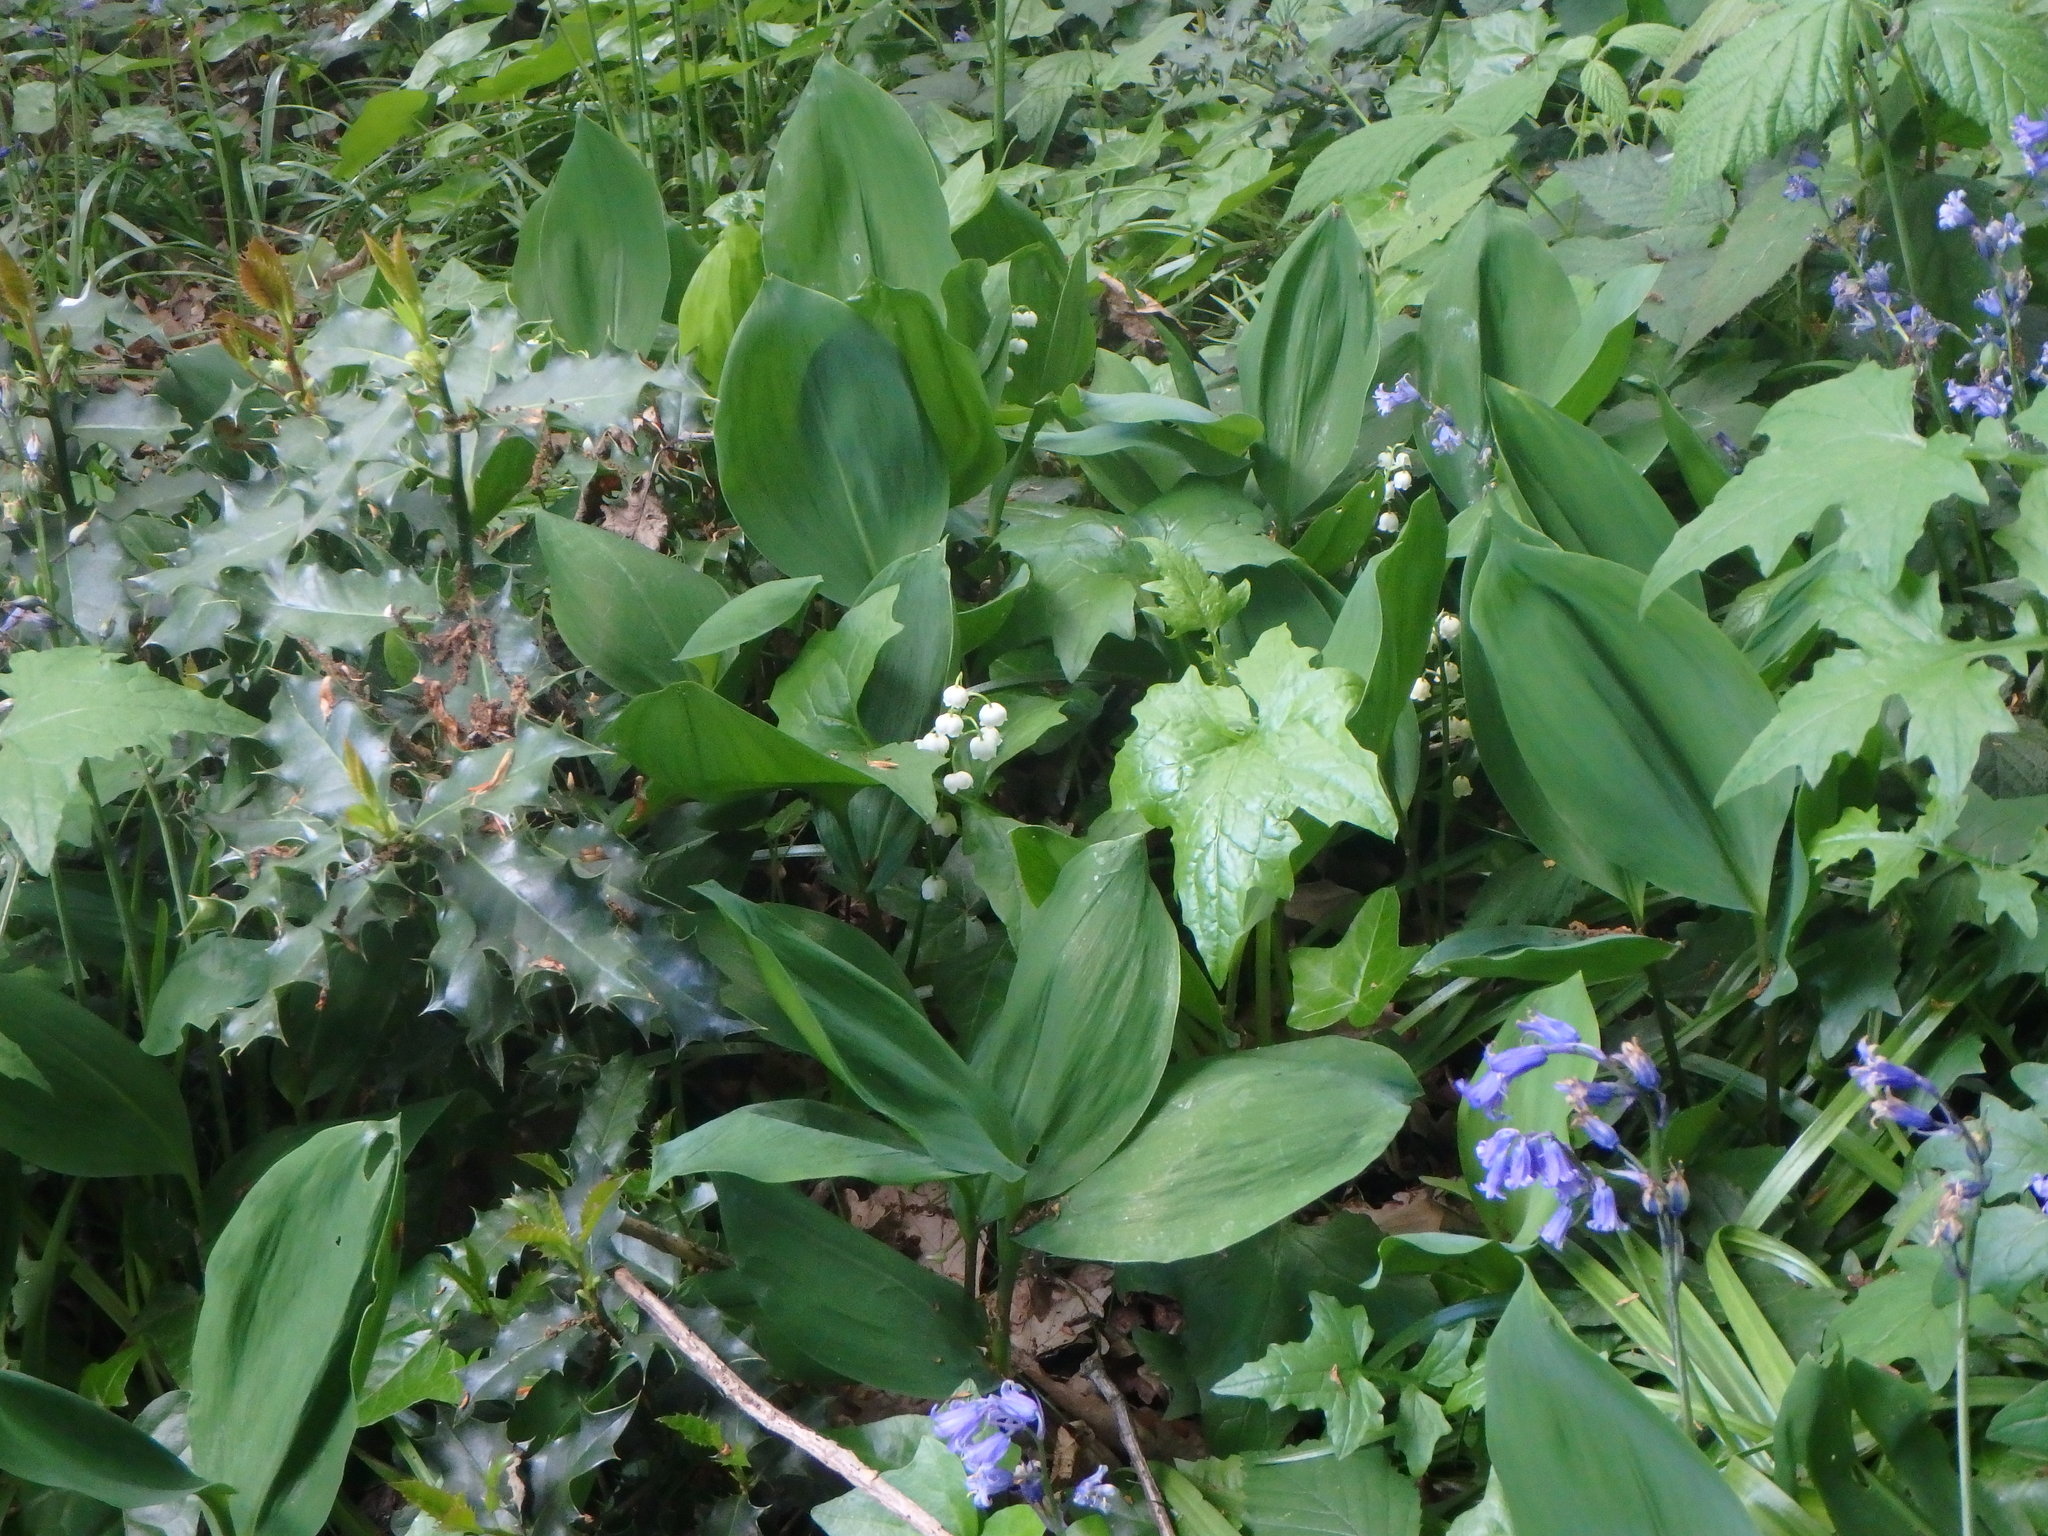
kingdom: Plantae
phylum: Tracheophyta
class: Liliopsida
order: Asparagales
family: Asparagaceae
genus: Convallaria
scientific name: Convallaria majalis
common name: Lily-of-the-valley
